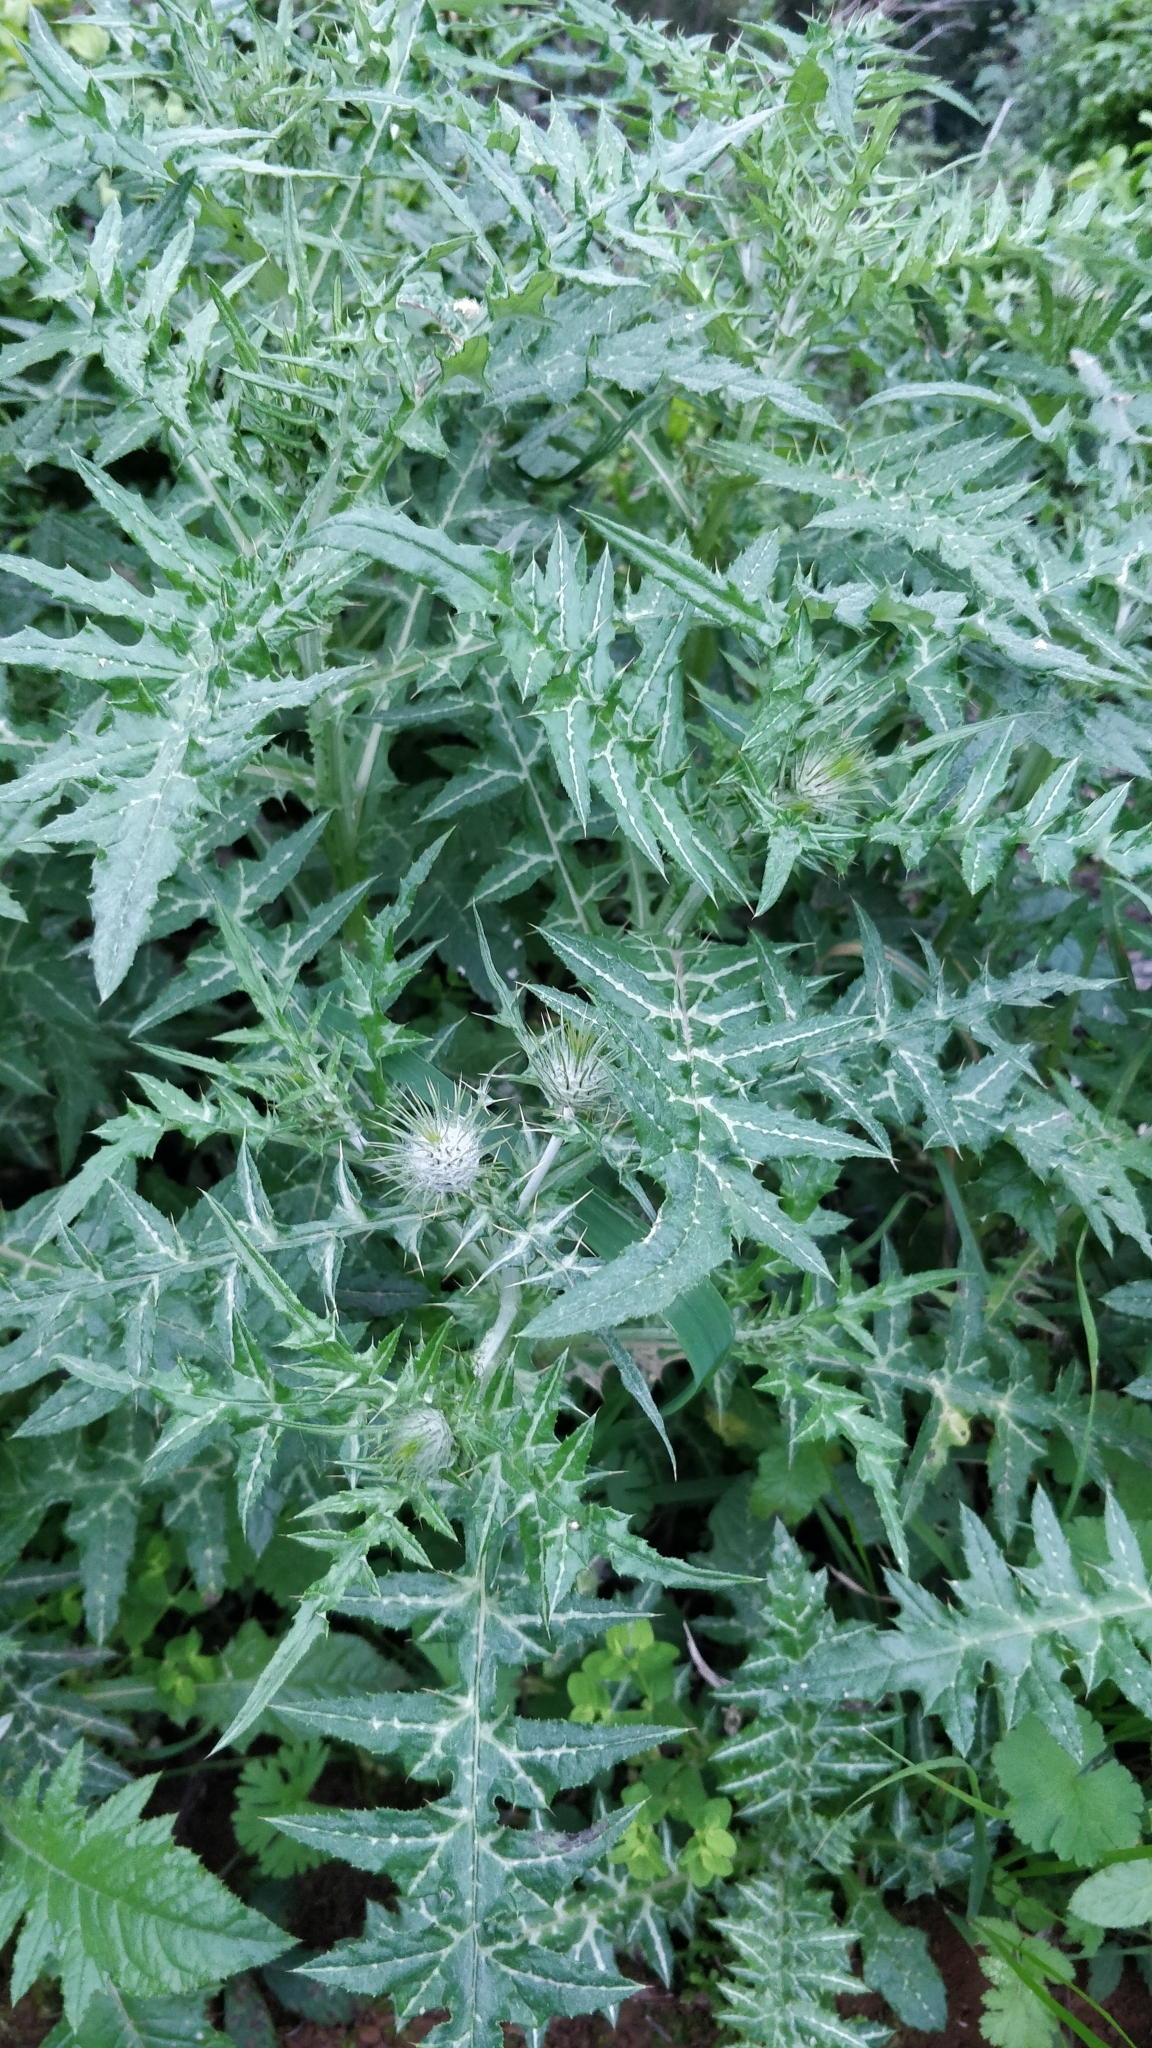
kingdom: Plantae
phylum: Tracheophyta
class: Magnoliopsida
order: Asterales
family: Asteraceae
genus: Galactites
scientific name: Galactites tomentosa
